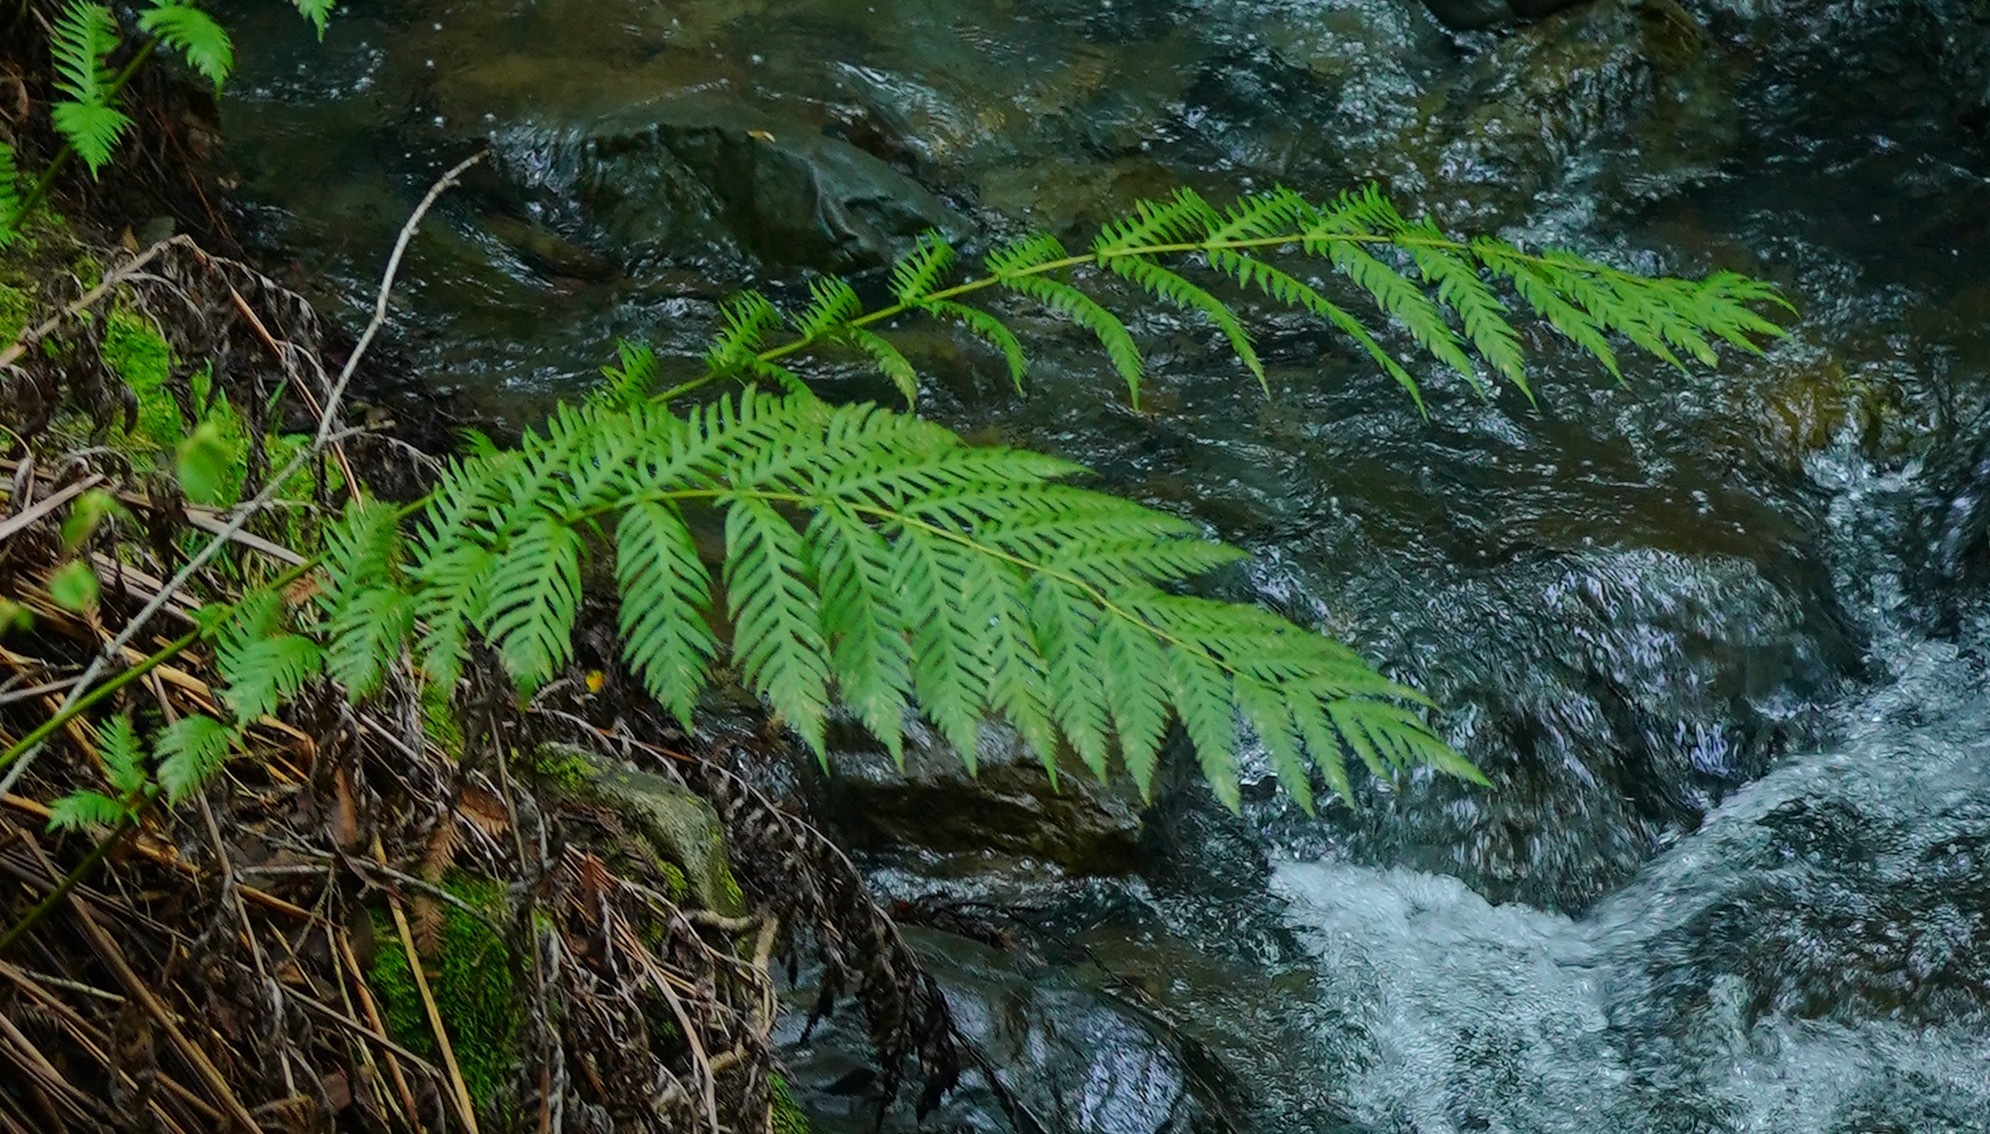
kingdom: Plantae
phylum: Tracheophyta
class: Polypodiopsida
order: Polypodiales
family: Blechnaceae
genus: Woodwardia
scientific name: Woodwardia fimbriata
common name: Giant chain fern
